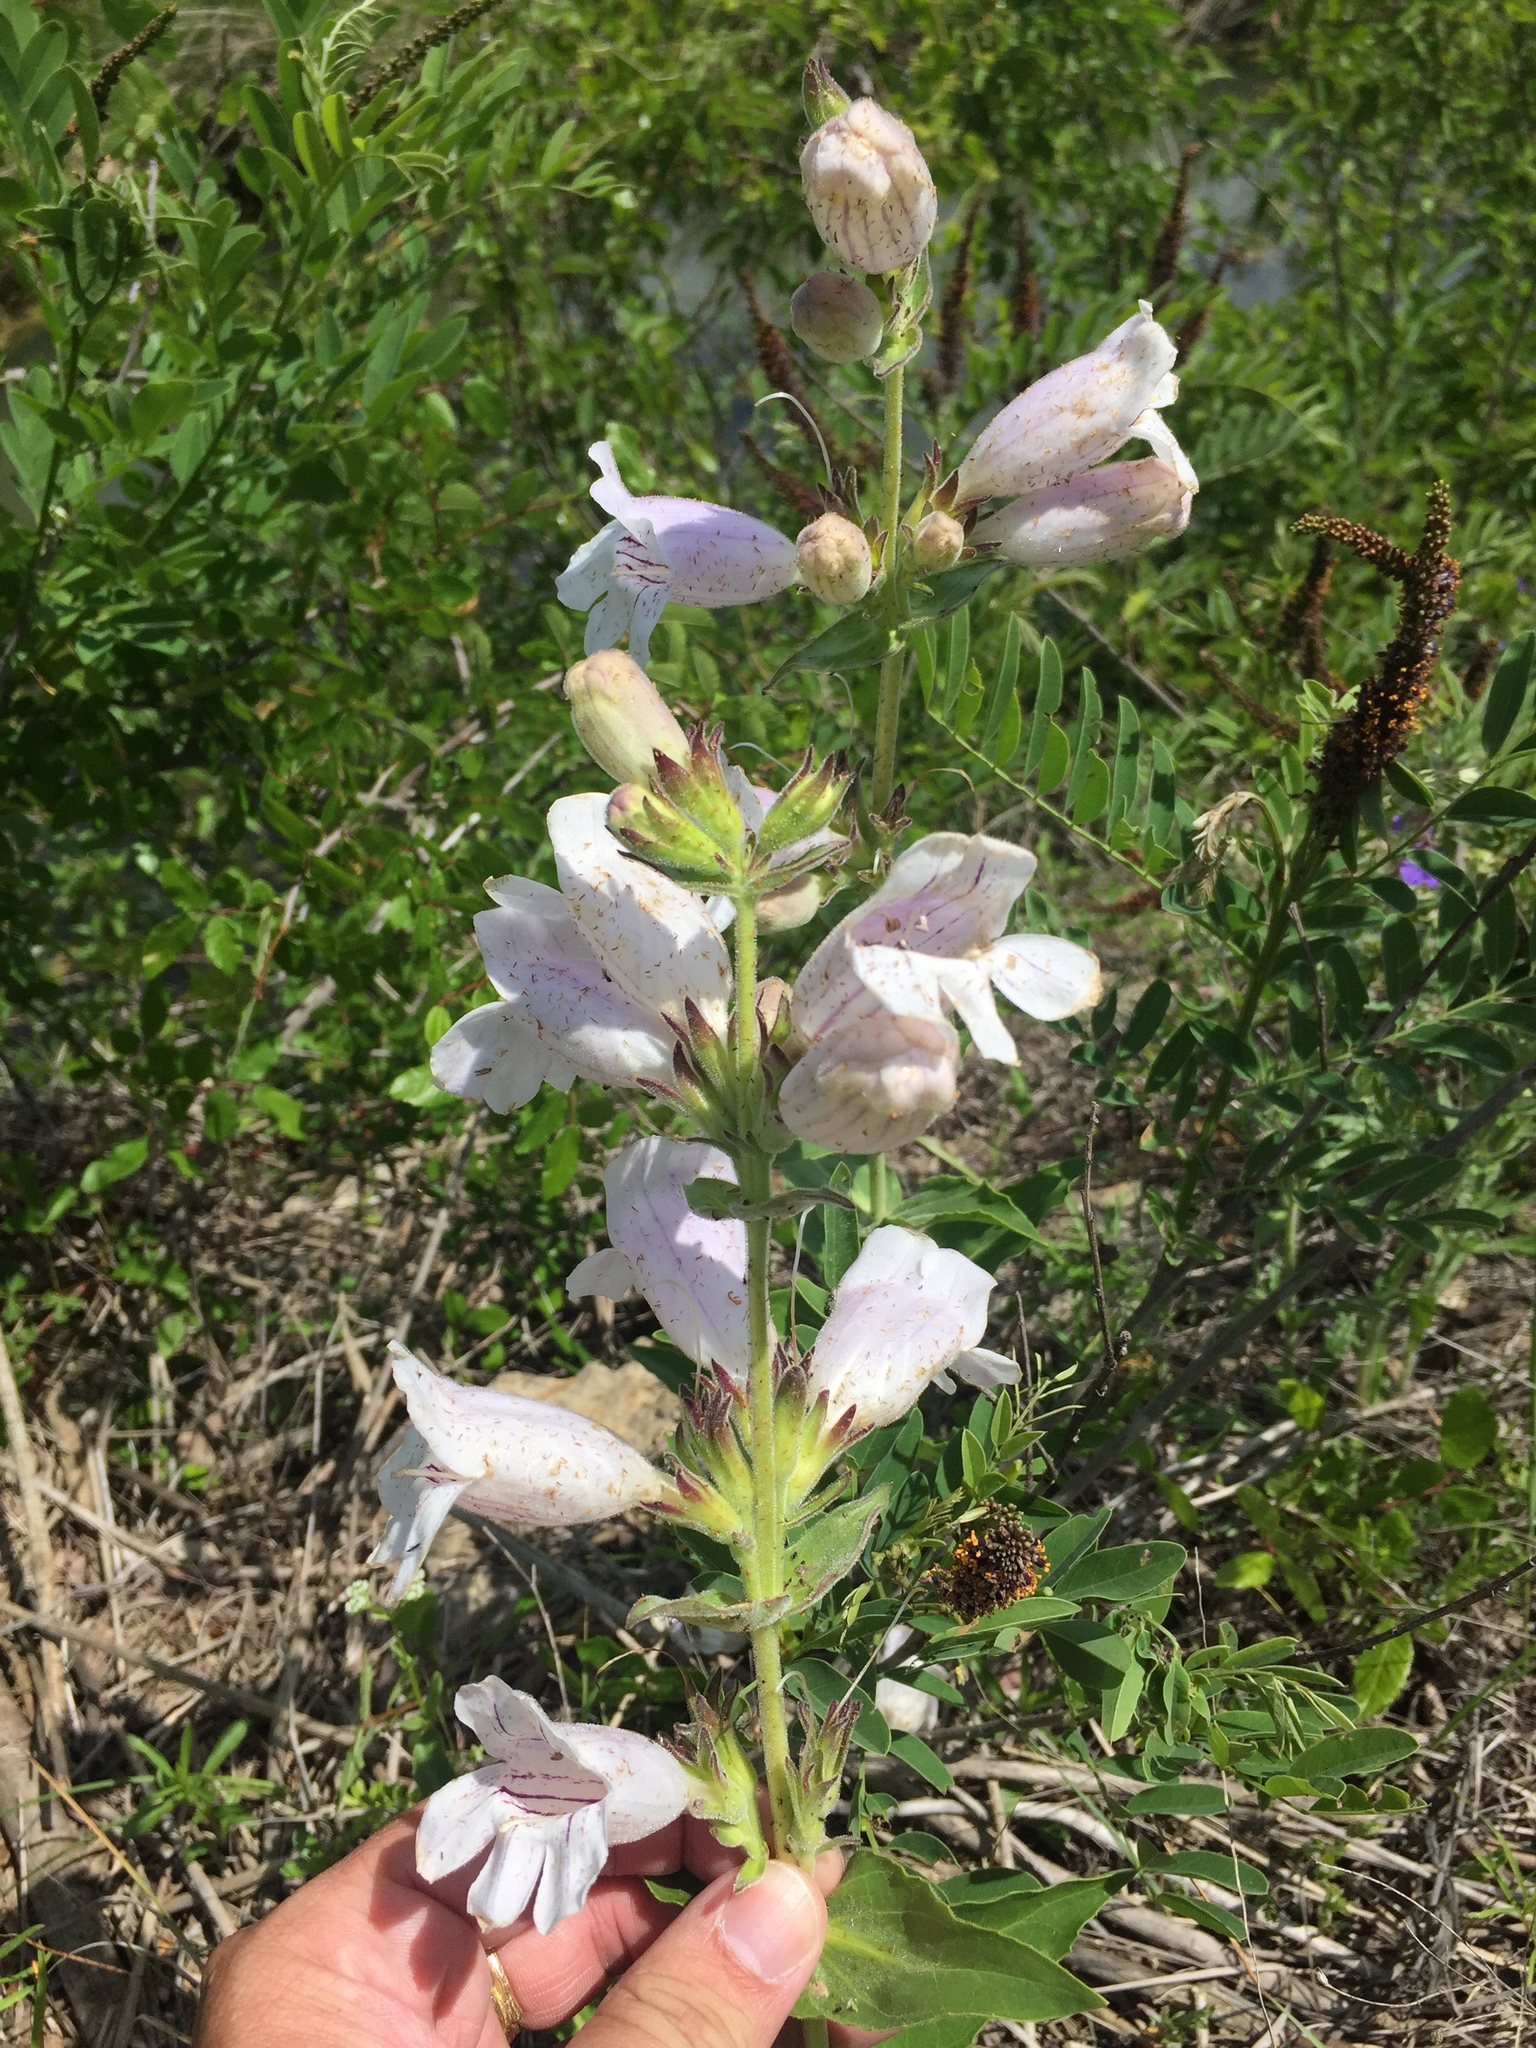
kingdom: Plantae
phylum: Tracheophyta
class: Magnoliopsida
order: Lamiales
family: Plantaginaceae
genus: Penstemon
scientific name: Penstemon cobaea
